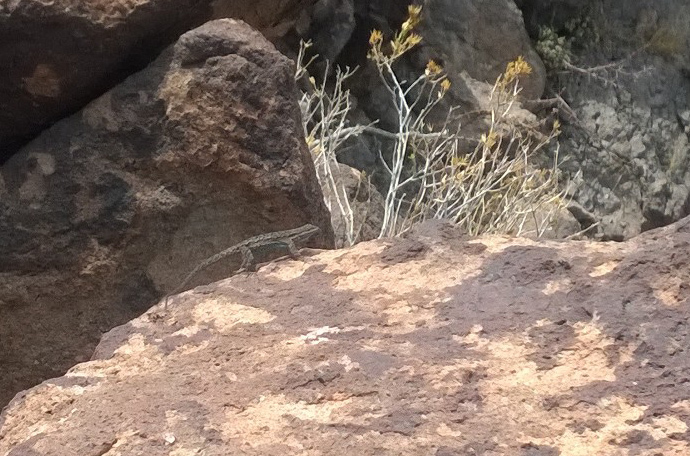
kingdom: Animalia
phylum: Chordata
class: Squamata
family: Phrynosomatidae
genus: Urosaurus
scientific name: Urosaurus ornatus
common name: Ornate tree lizard
